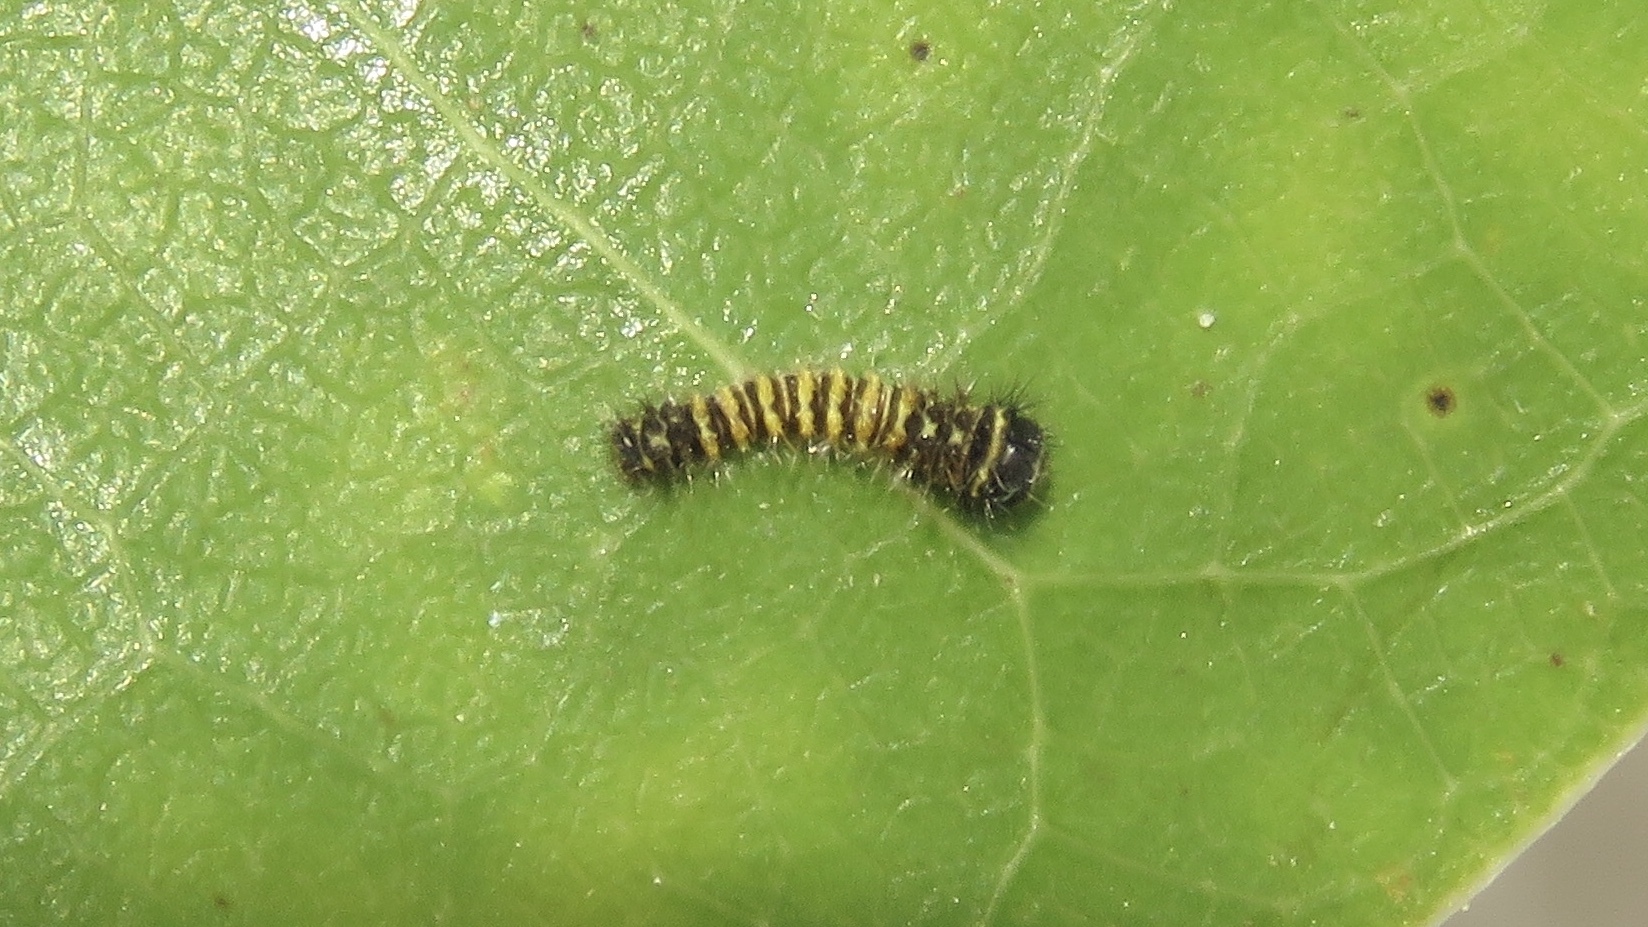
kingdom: Animalia
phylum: Arthropoda
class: Insecta
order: Lepidoptera
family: Saturniidae
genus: Callosamia
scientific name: Callosamia promethea
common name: Promethea silkmoth
